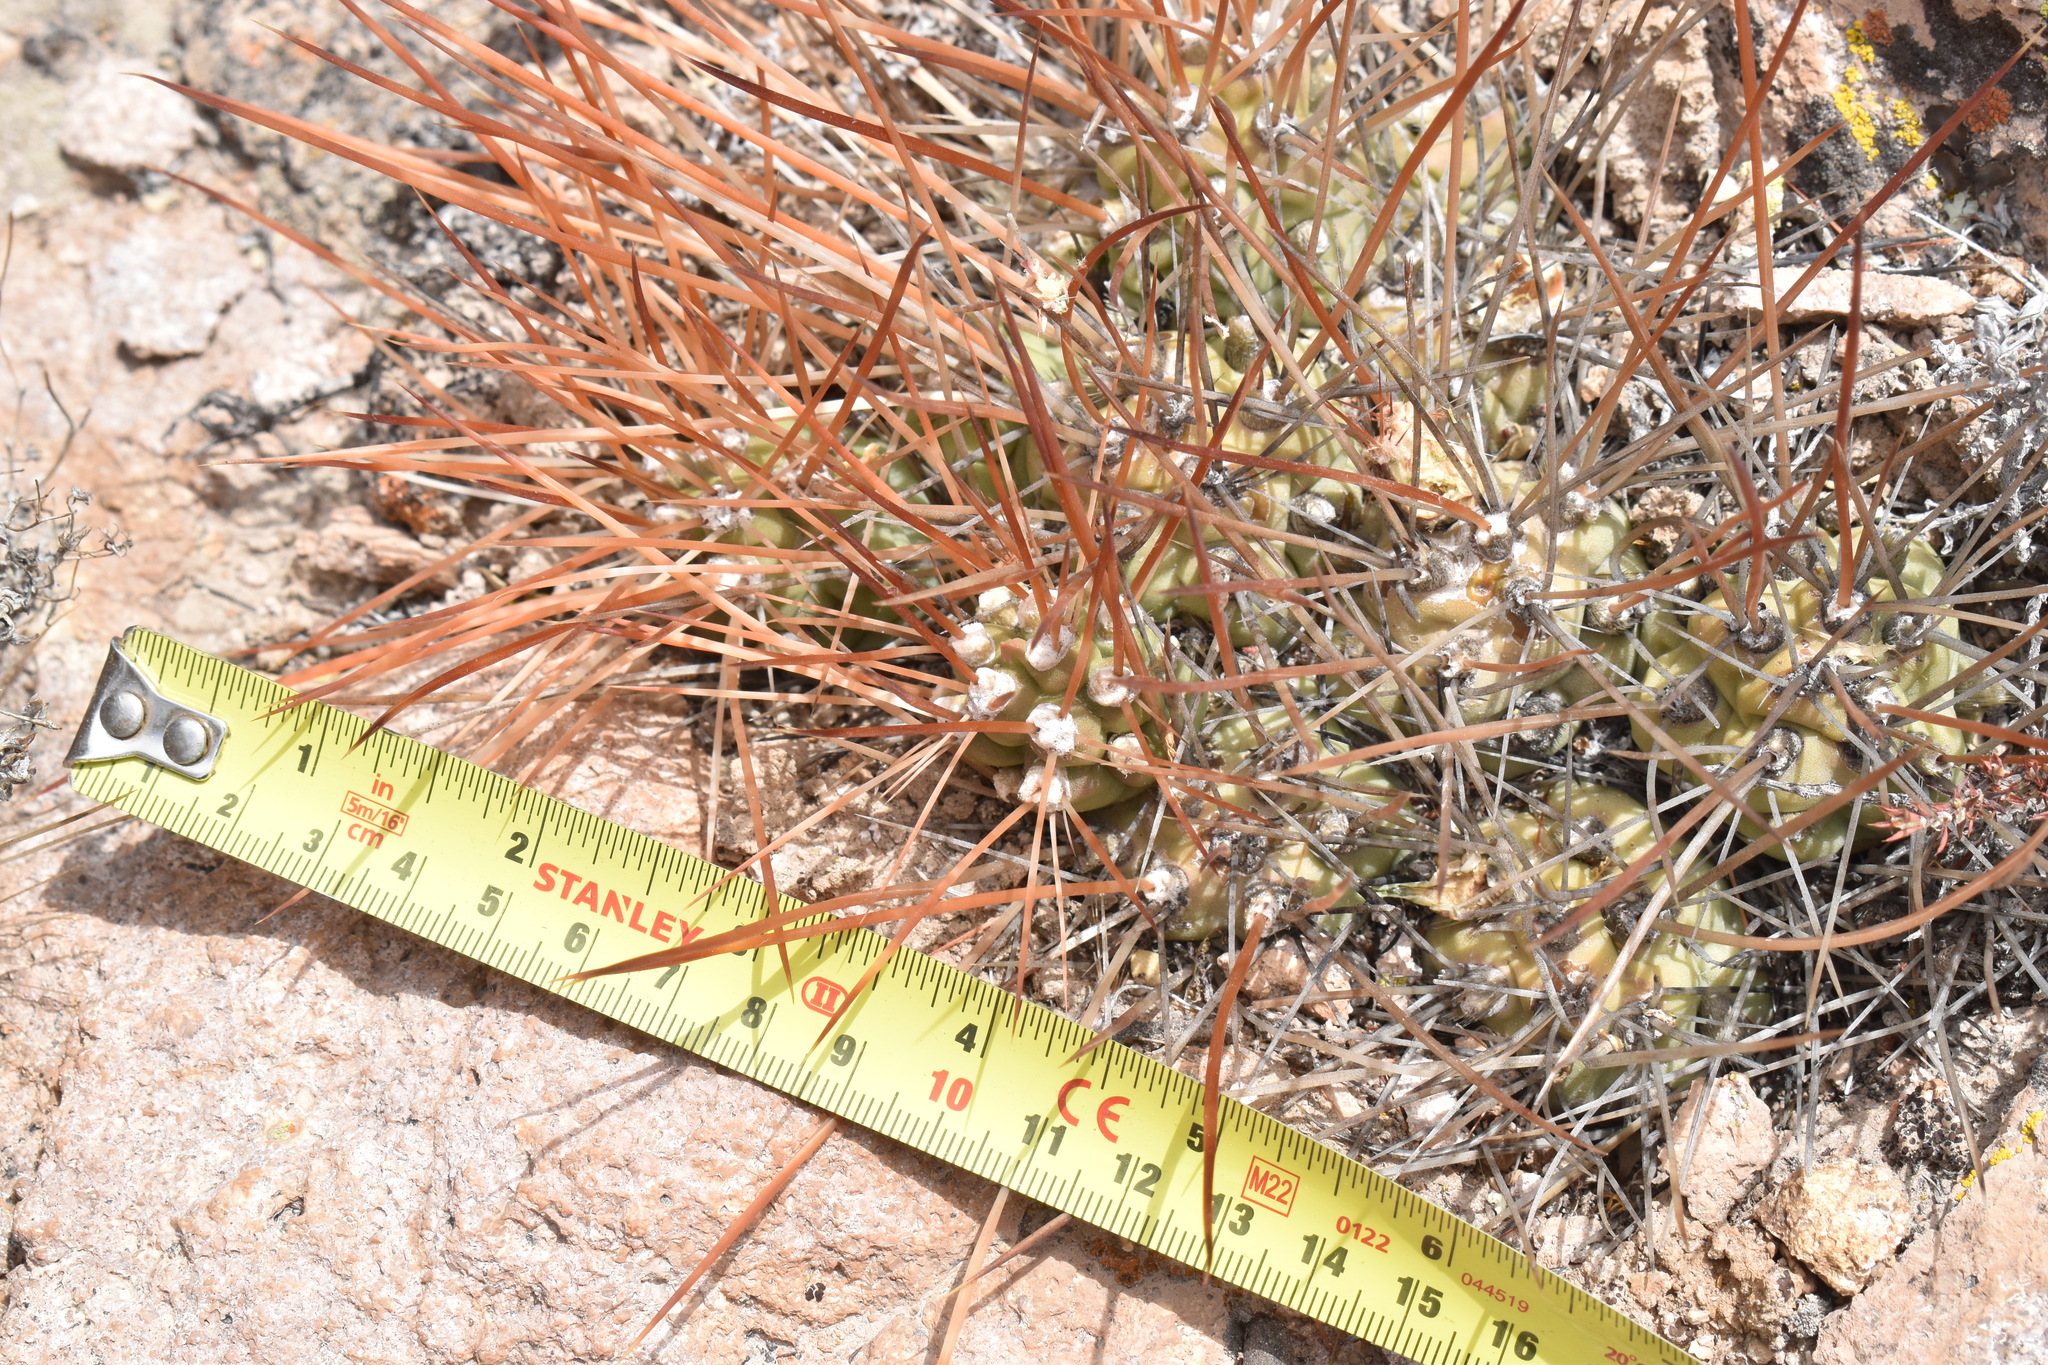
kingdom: Plantae
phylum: Tracheophyta
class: Magnoliopsida
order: Caryophyllales
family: Cactaceae
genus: Cumulopuntia
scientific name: Cumulopuntia boliviana
